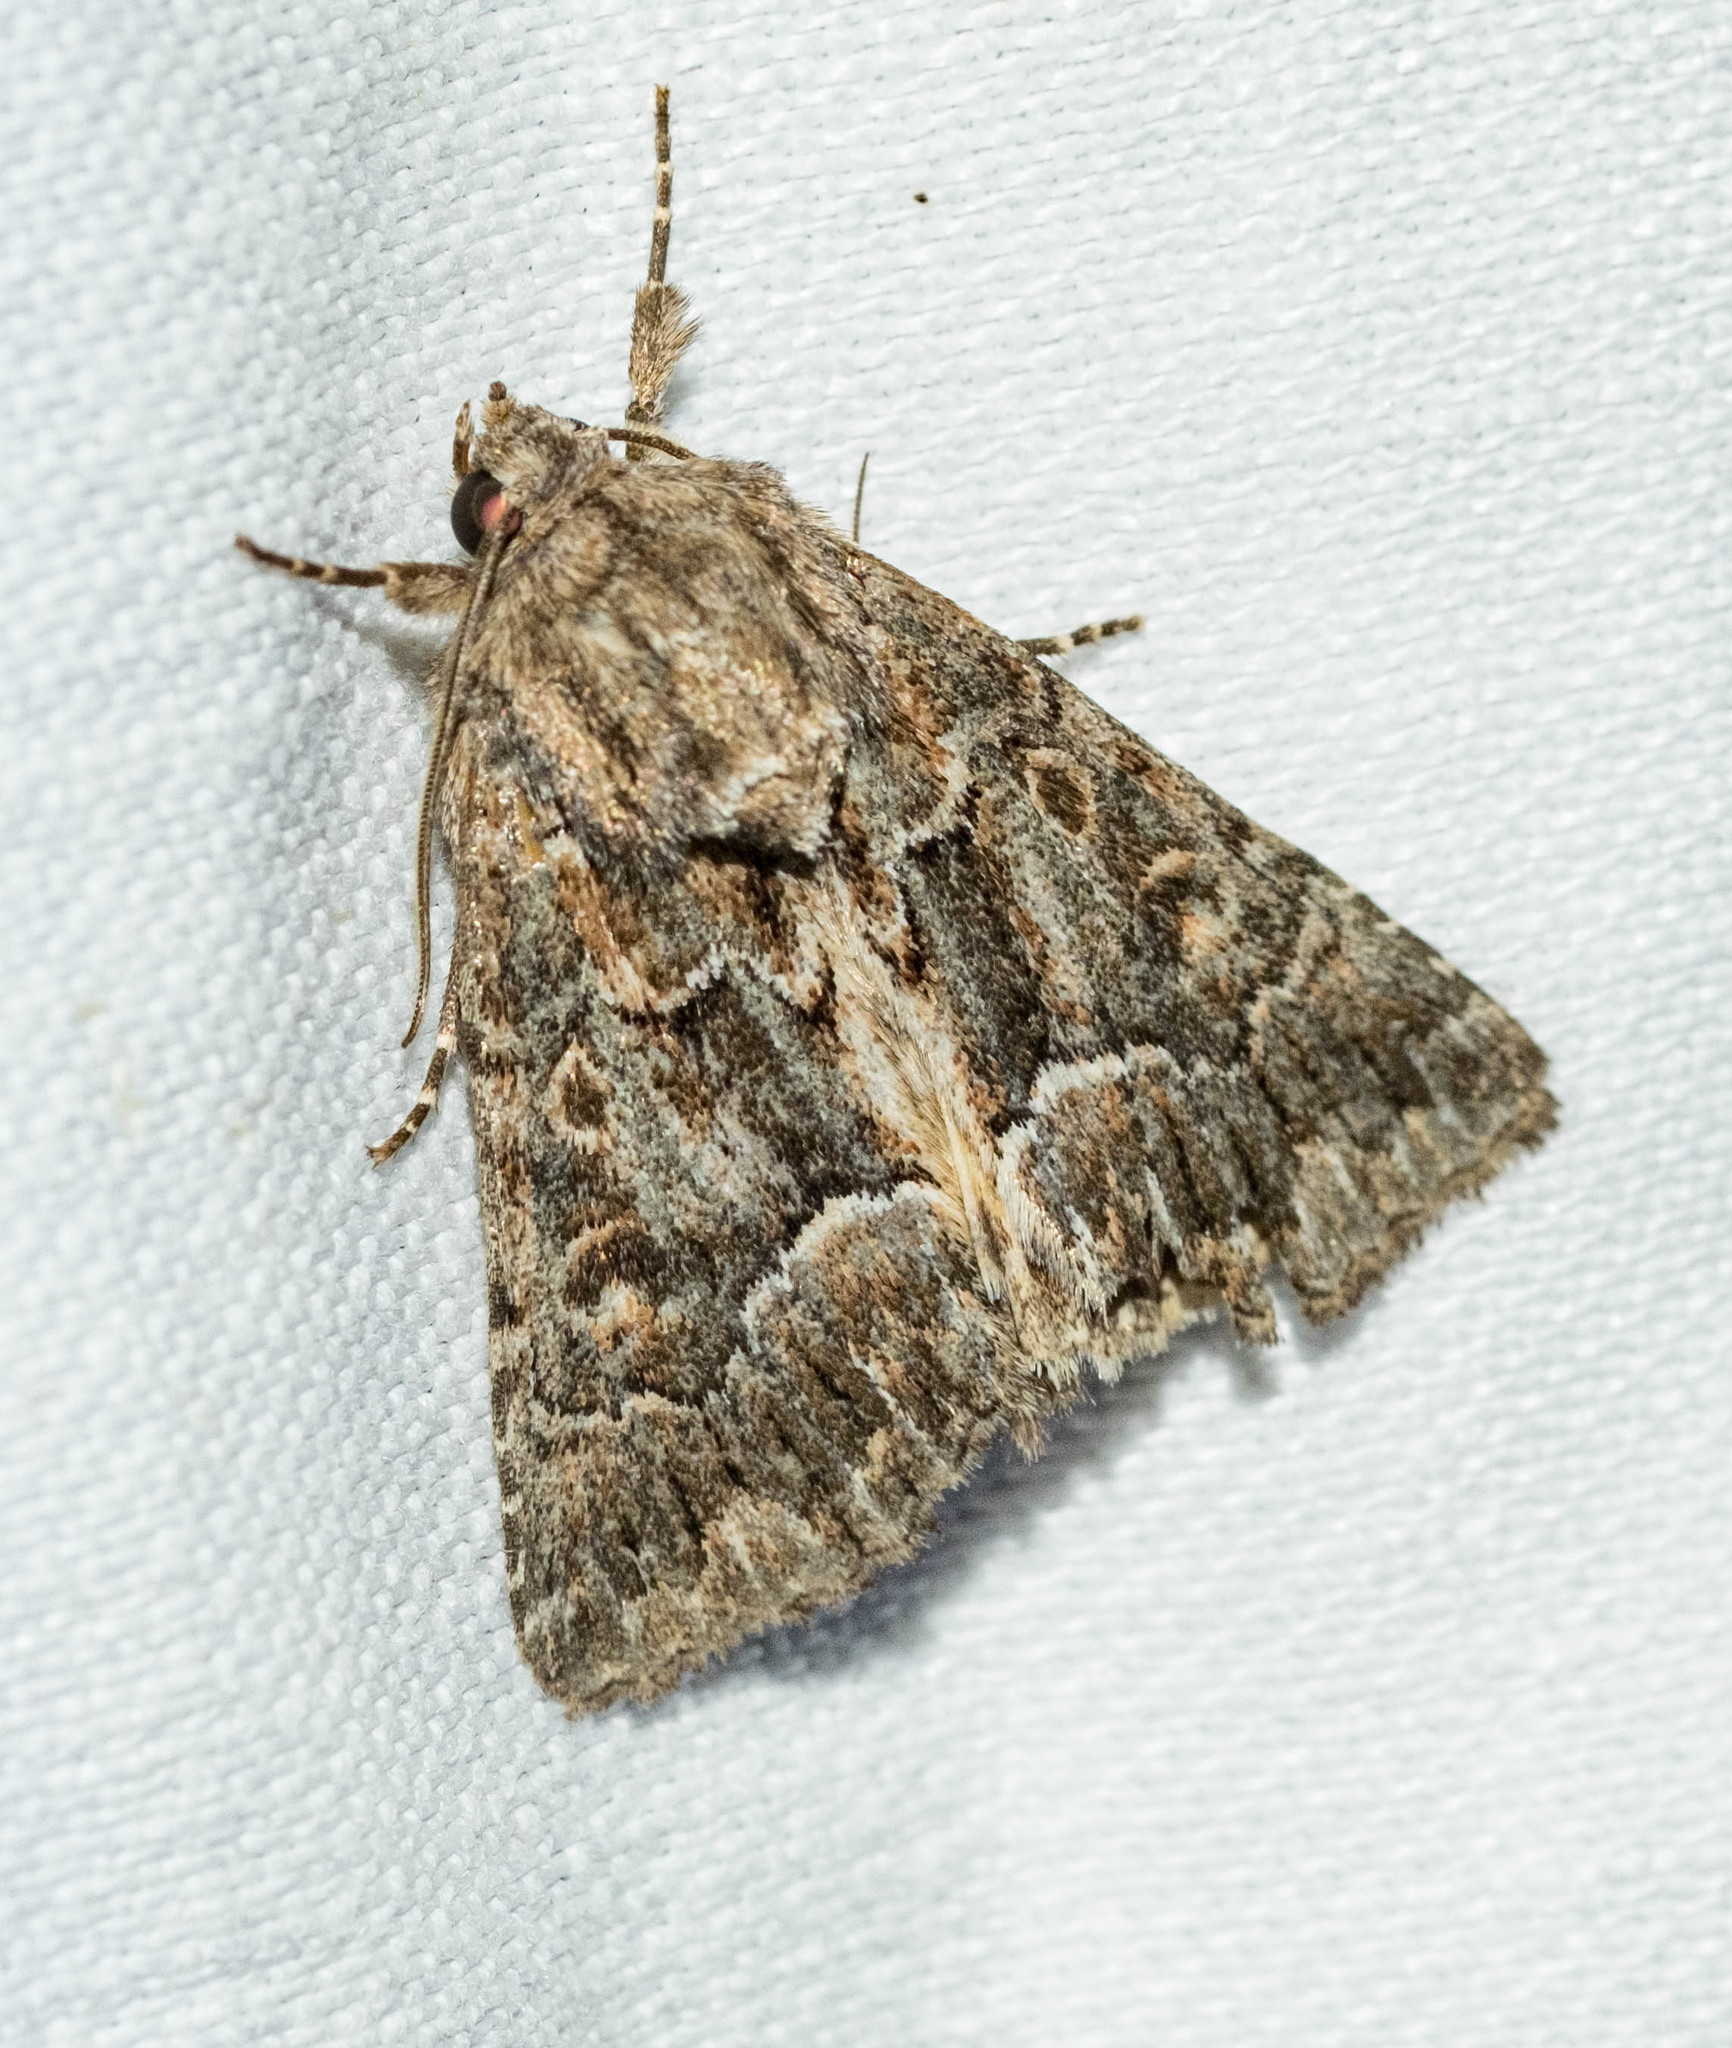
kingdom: Animalia
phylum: Arthropoda
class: Insecta
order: Lepidoptera
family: Noctuidae
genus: Thalpophila
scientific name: Thalpophila matura
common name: Straw underwing
